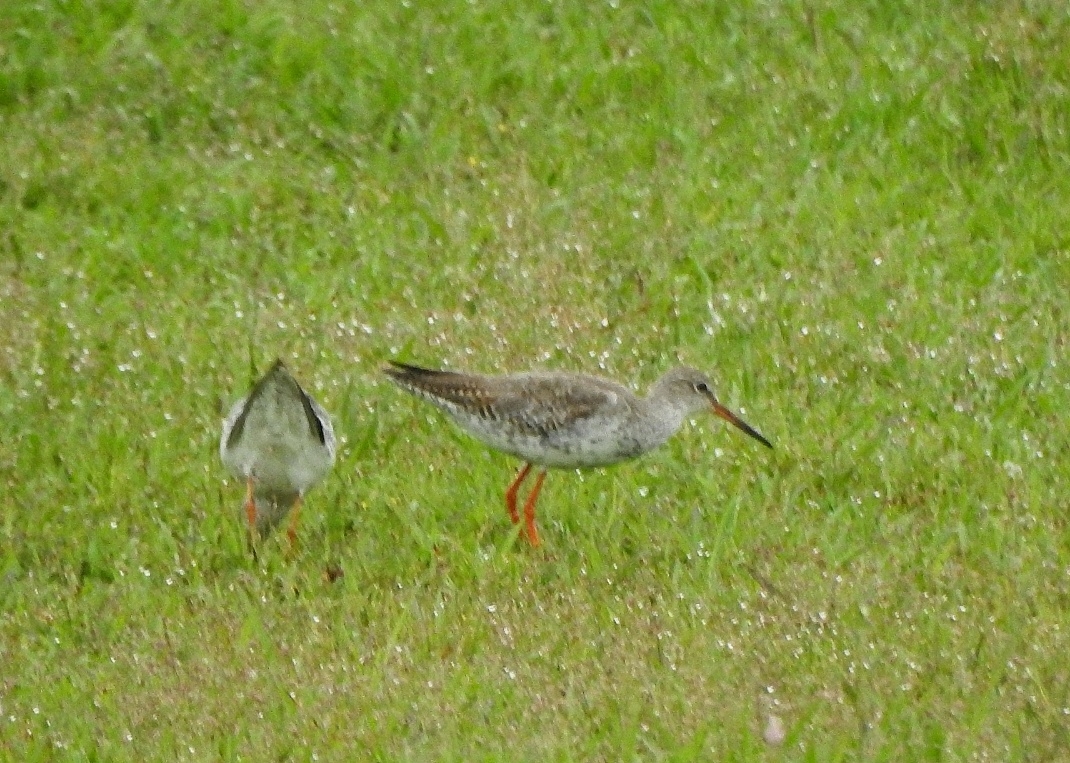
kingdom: Animalia
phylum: Chordata
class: Aves
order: Charadriiformes
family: Scolopacidae
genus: Tringa
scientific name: Tringa totanus
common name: Common redshank
